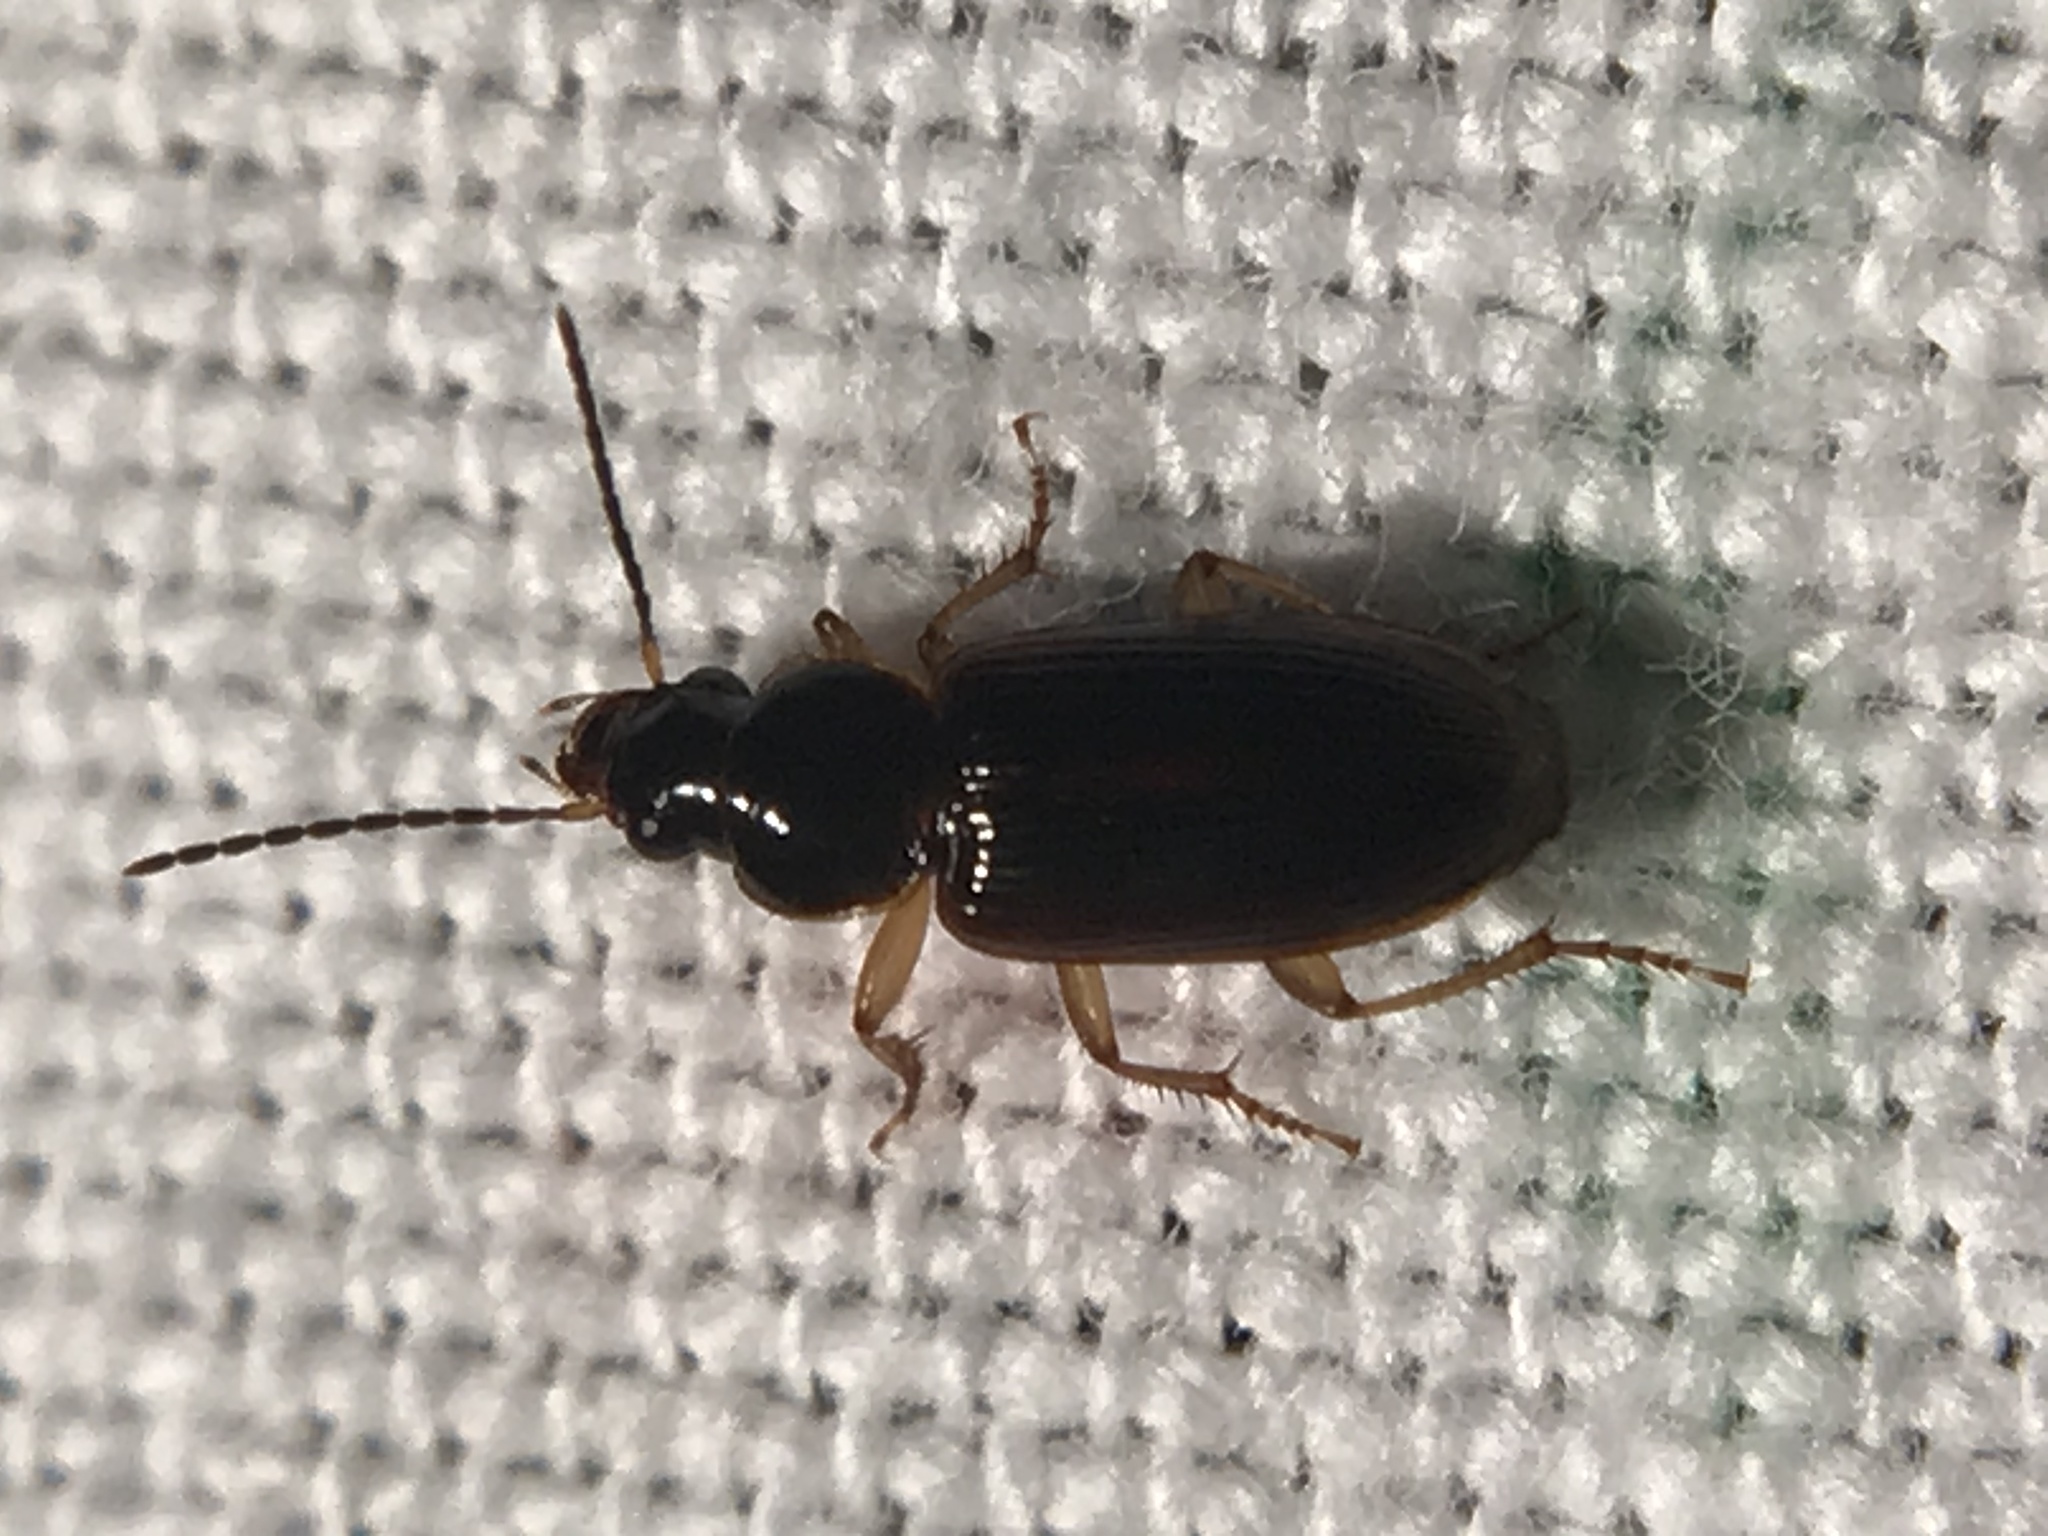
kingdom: Animalia
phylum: Arthropoda
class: Insecta
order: Coleoptera
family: Carabidae
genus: Stenolophus
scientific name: Stenolophus ochropezus
